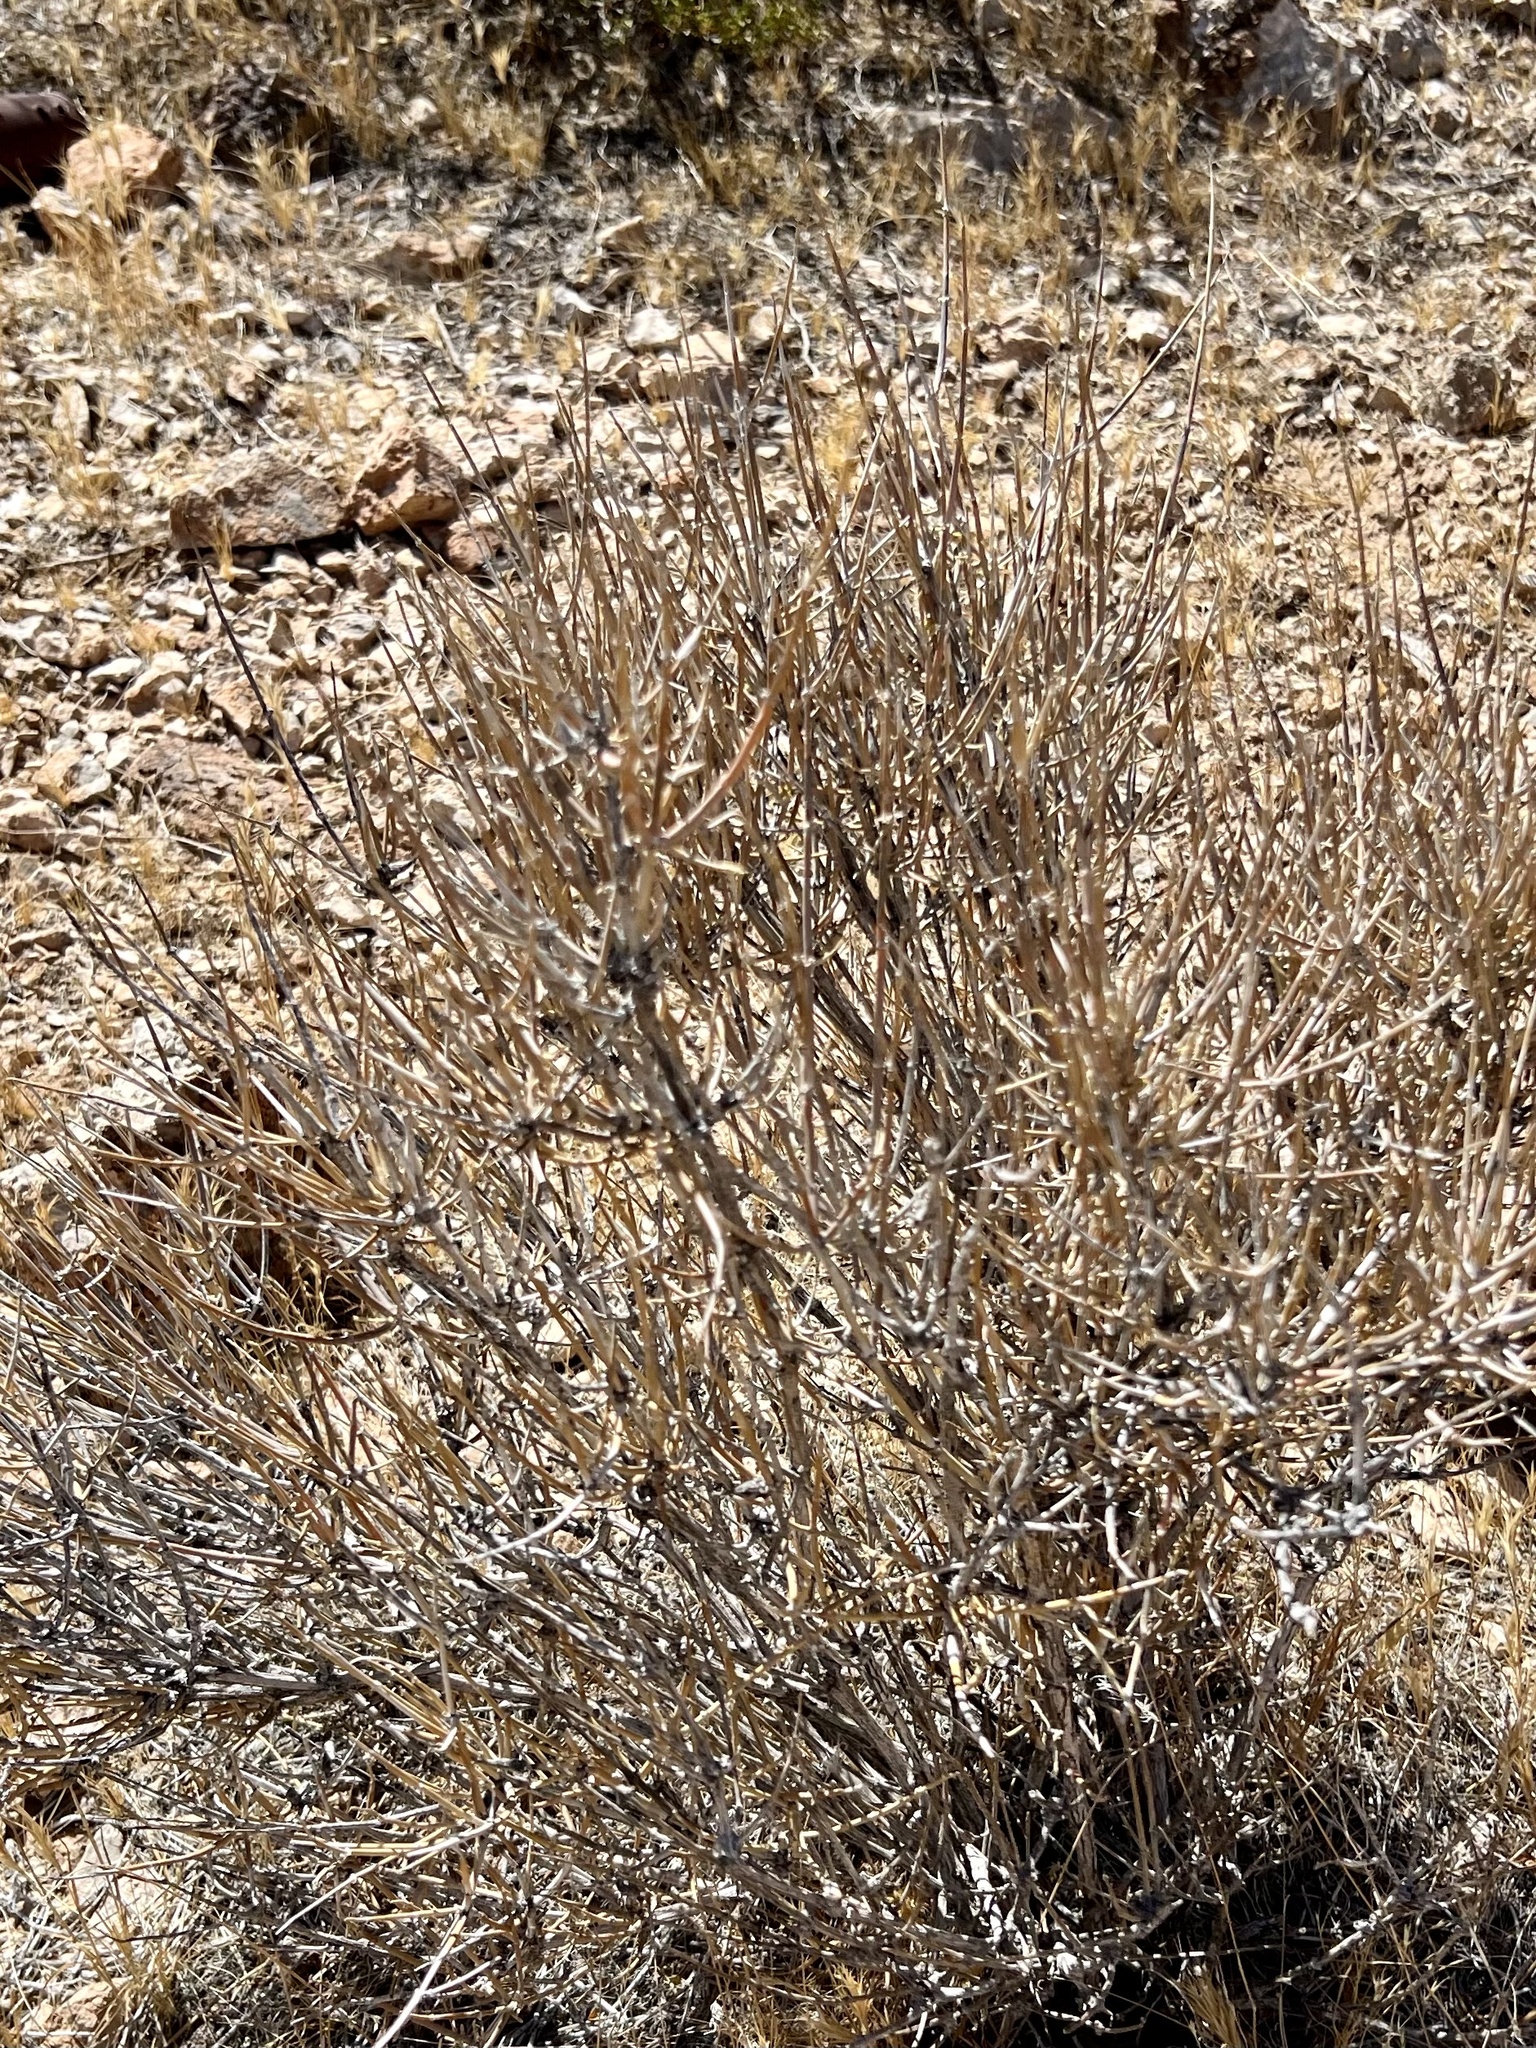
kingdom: Plantae
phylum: Tracheophyta
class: Gnetopsida
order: Ephedrales
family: Ephedraceae
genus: Ephedra
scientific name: Ephedra nevadensis
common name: Gray ephedra
